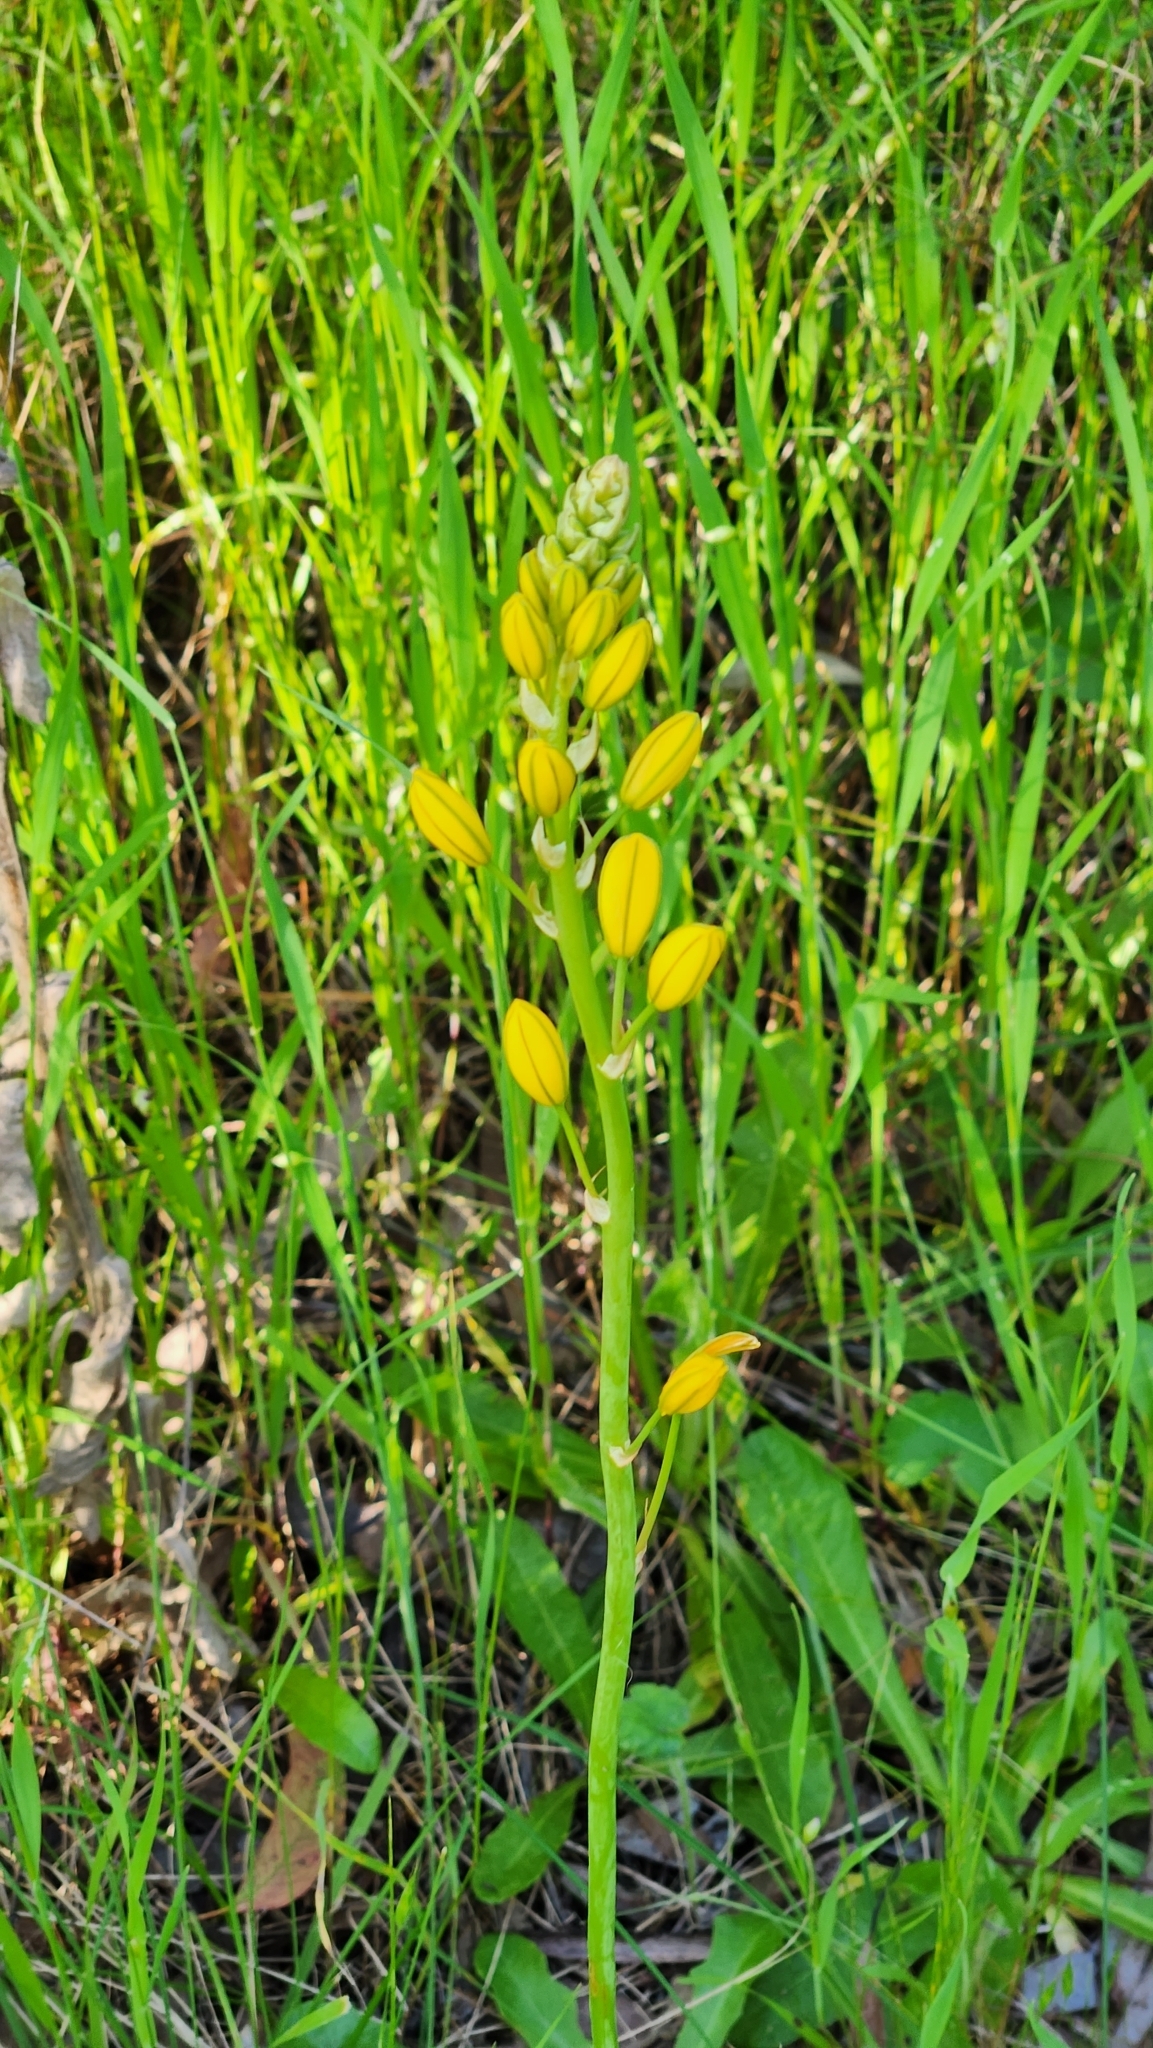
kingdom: Plantae
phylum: Tracheophyta
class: Liliopsida
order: Asparagales
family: Asphodelaceae
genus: Bulbine
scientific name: Bulbine bulbosa
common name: Golden-lily
